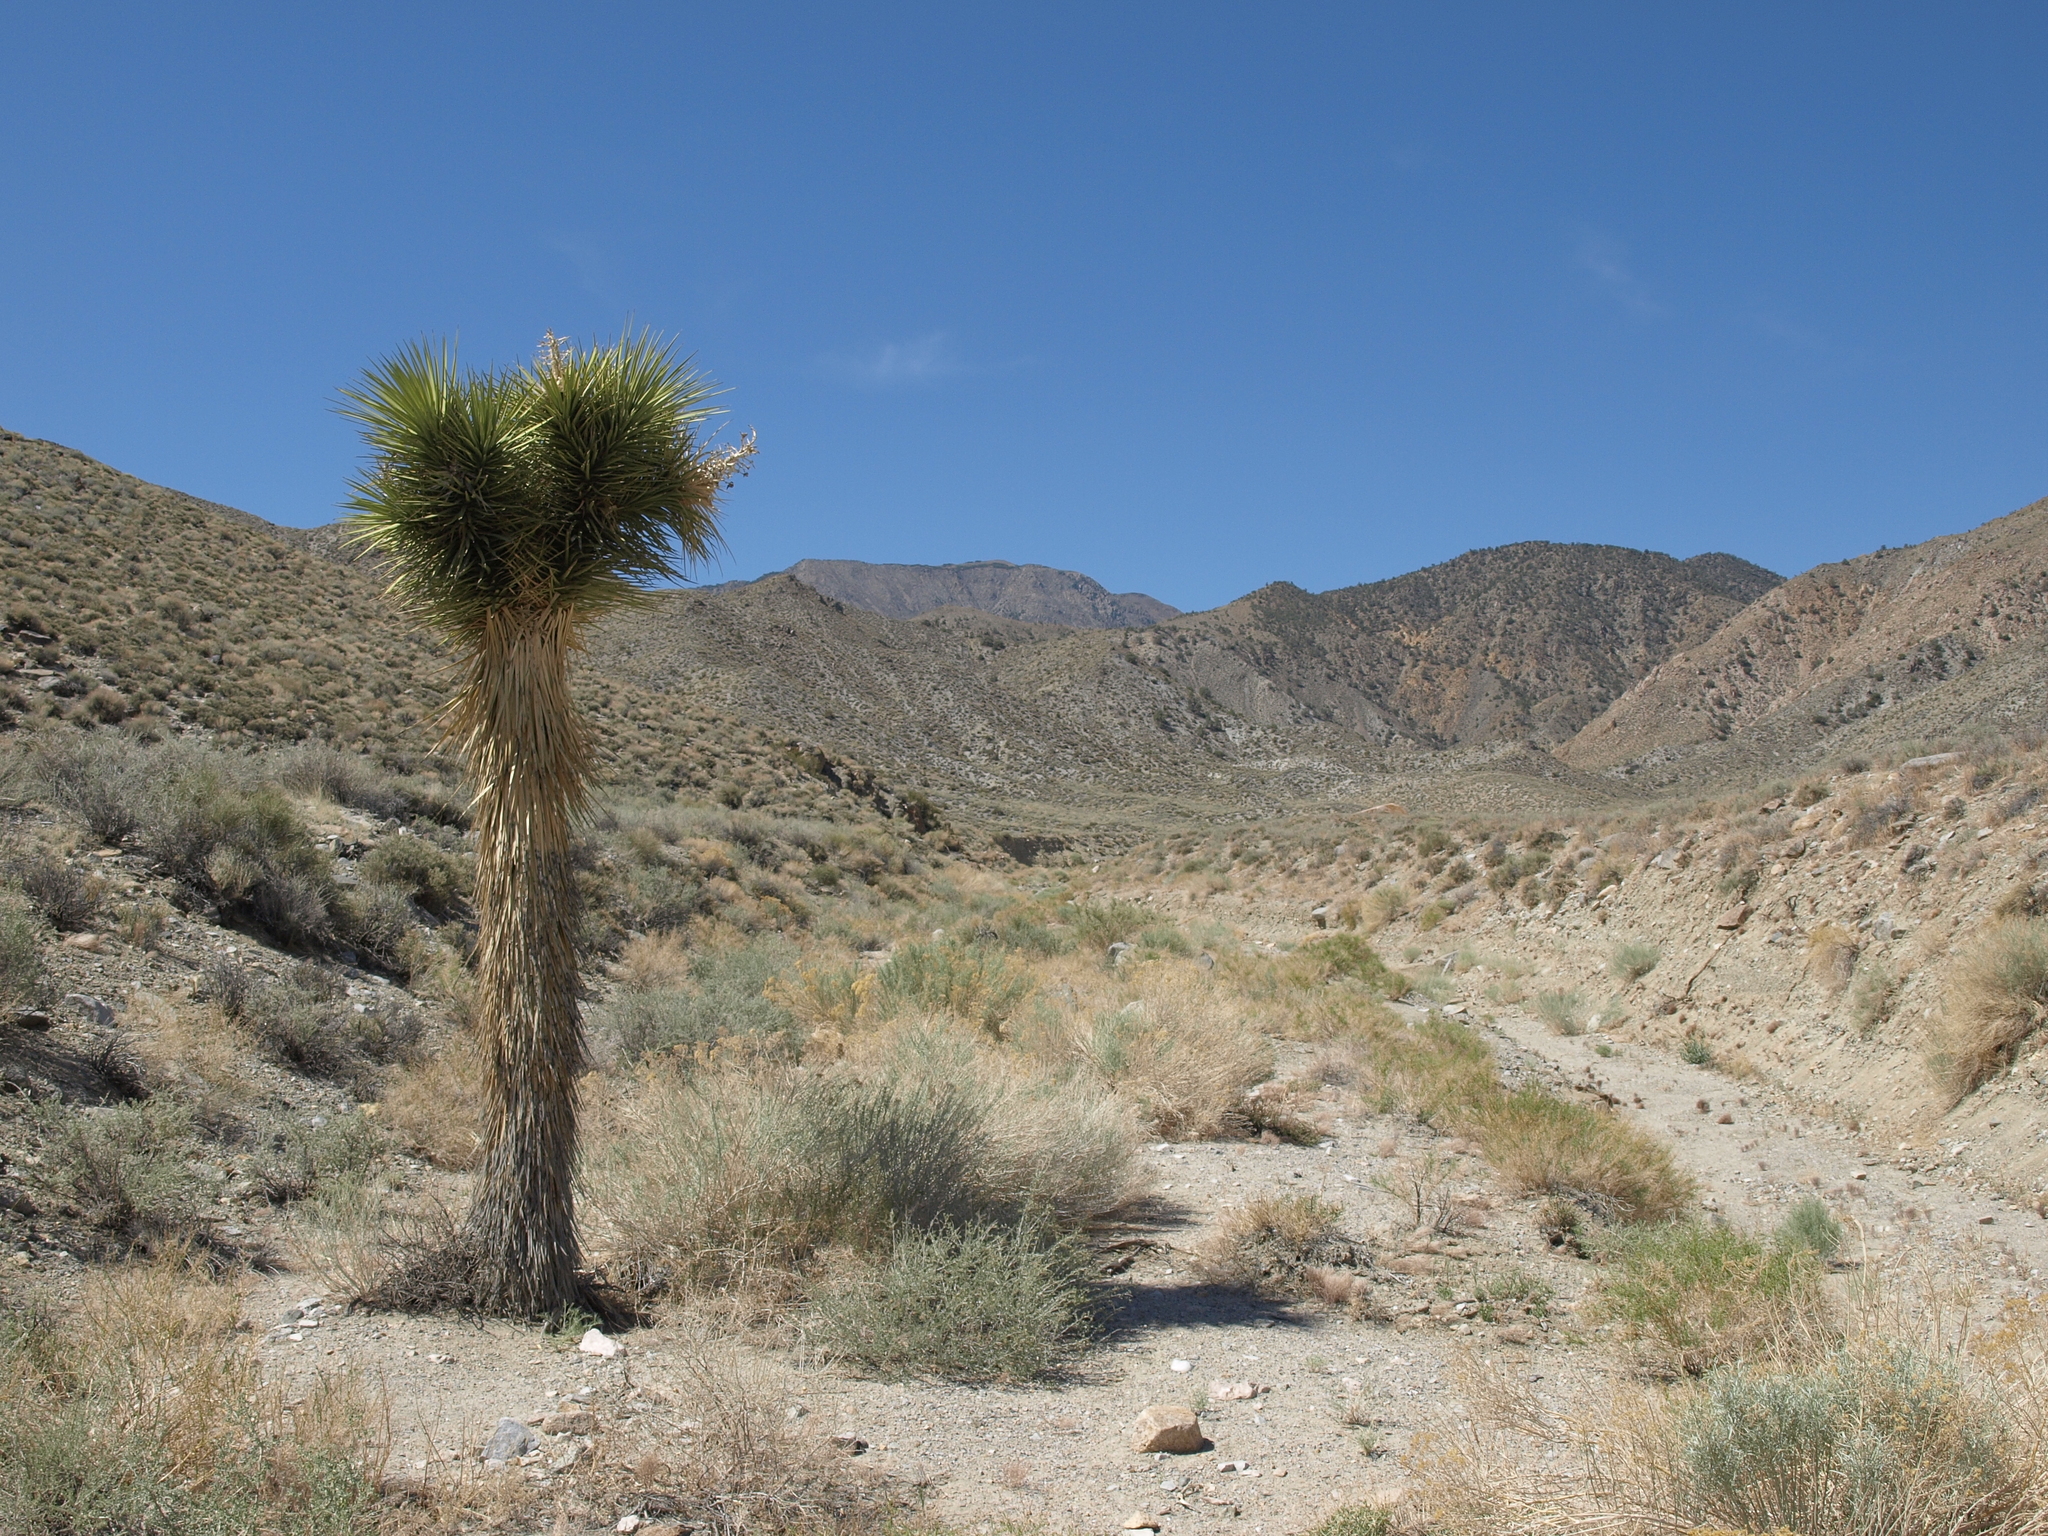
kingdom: Plantae
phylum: Tracheophyta
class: Liliopsida
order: Asparagales
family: Asparagaceae
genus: Yucca
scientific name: Yucca brevifolia
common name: Joshua tree
